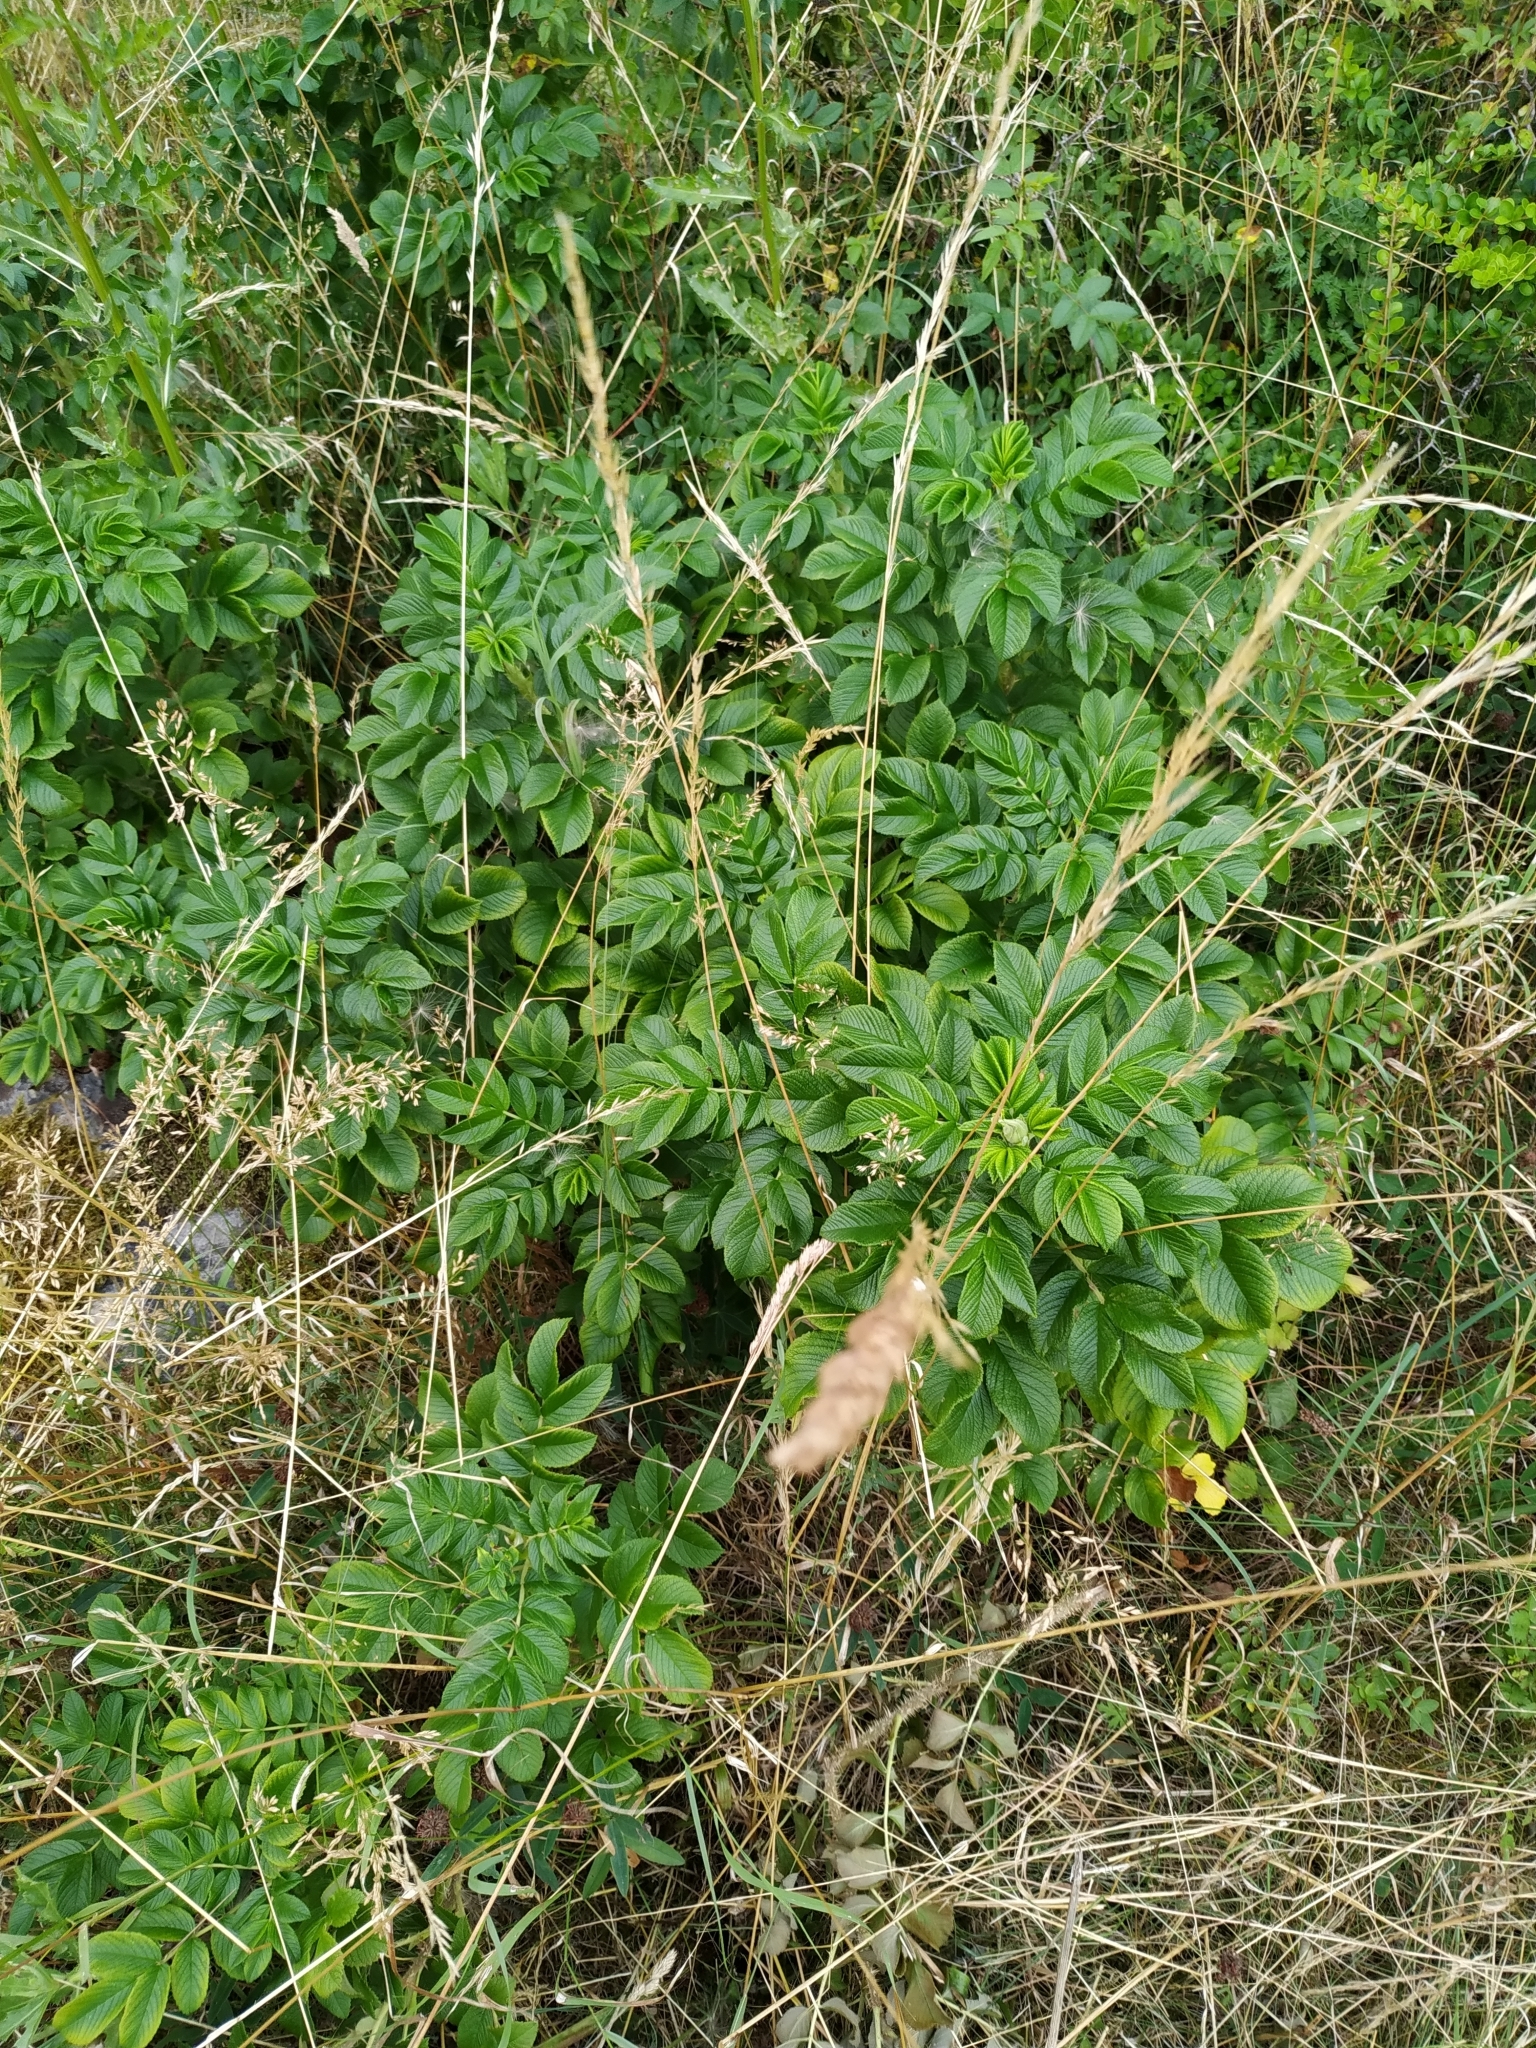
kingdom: Plantae
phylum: Tracheophyta
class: Magnoliopsida
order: Rosales
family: Rosaceae
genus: Rosa
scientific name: Rosa rugosa
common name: Japanese rose
